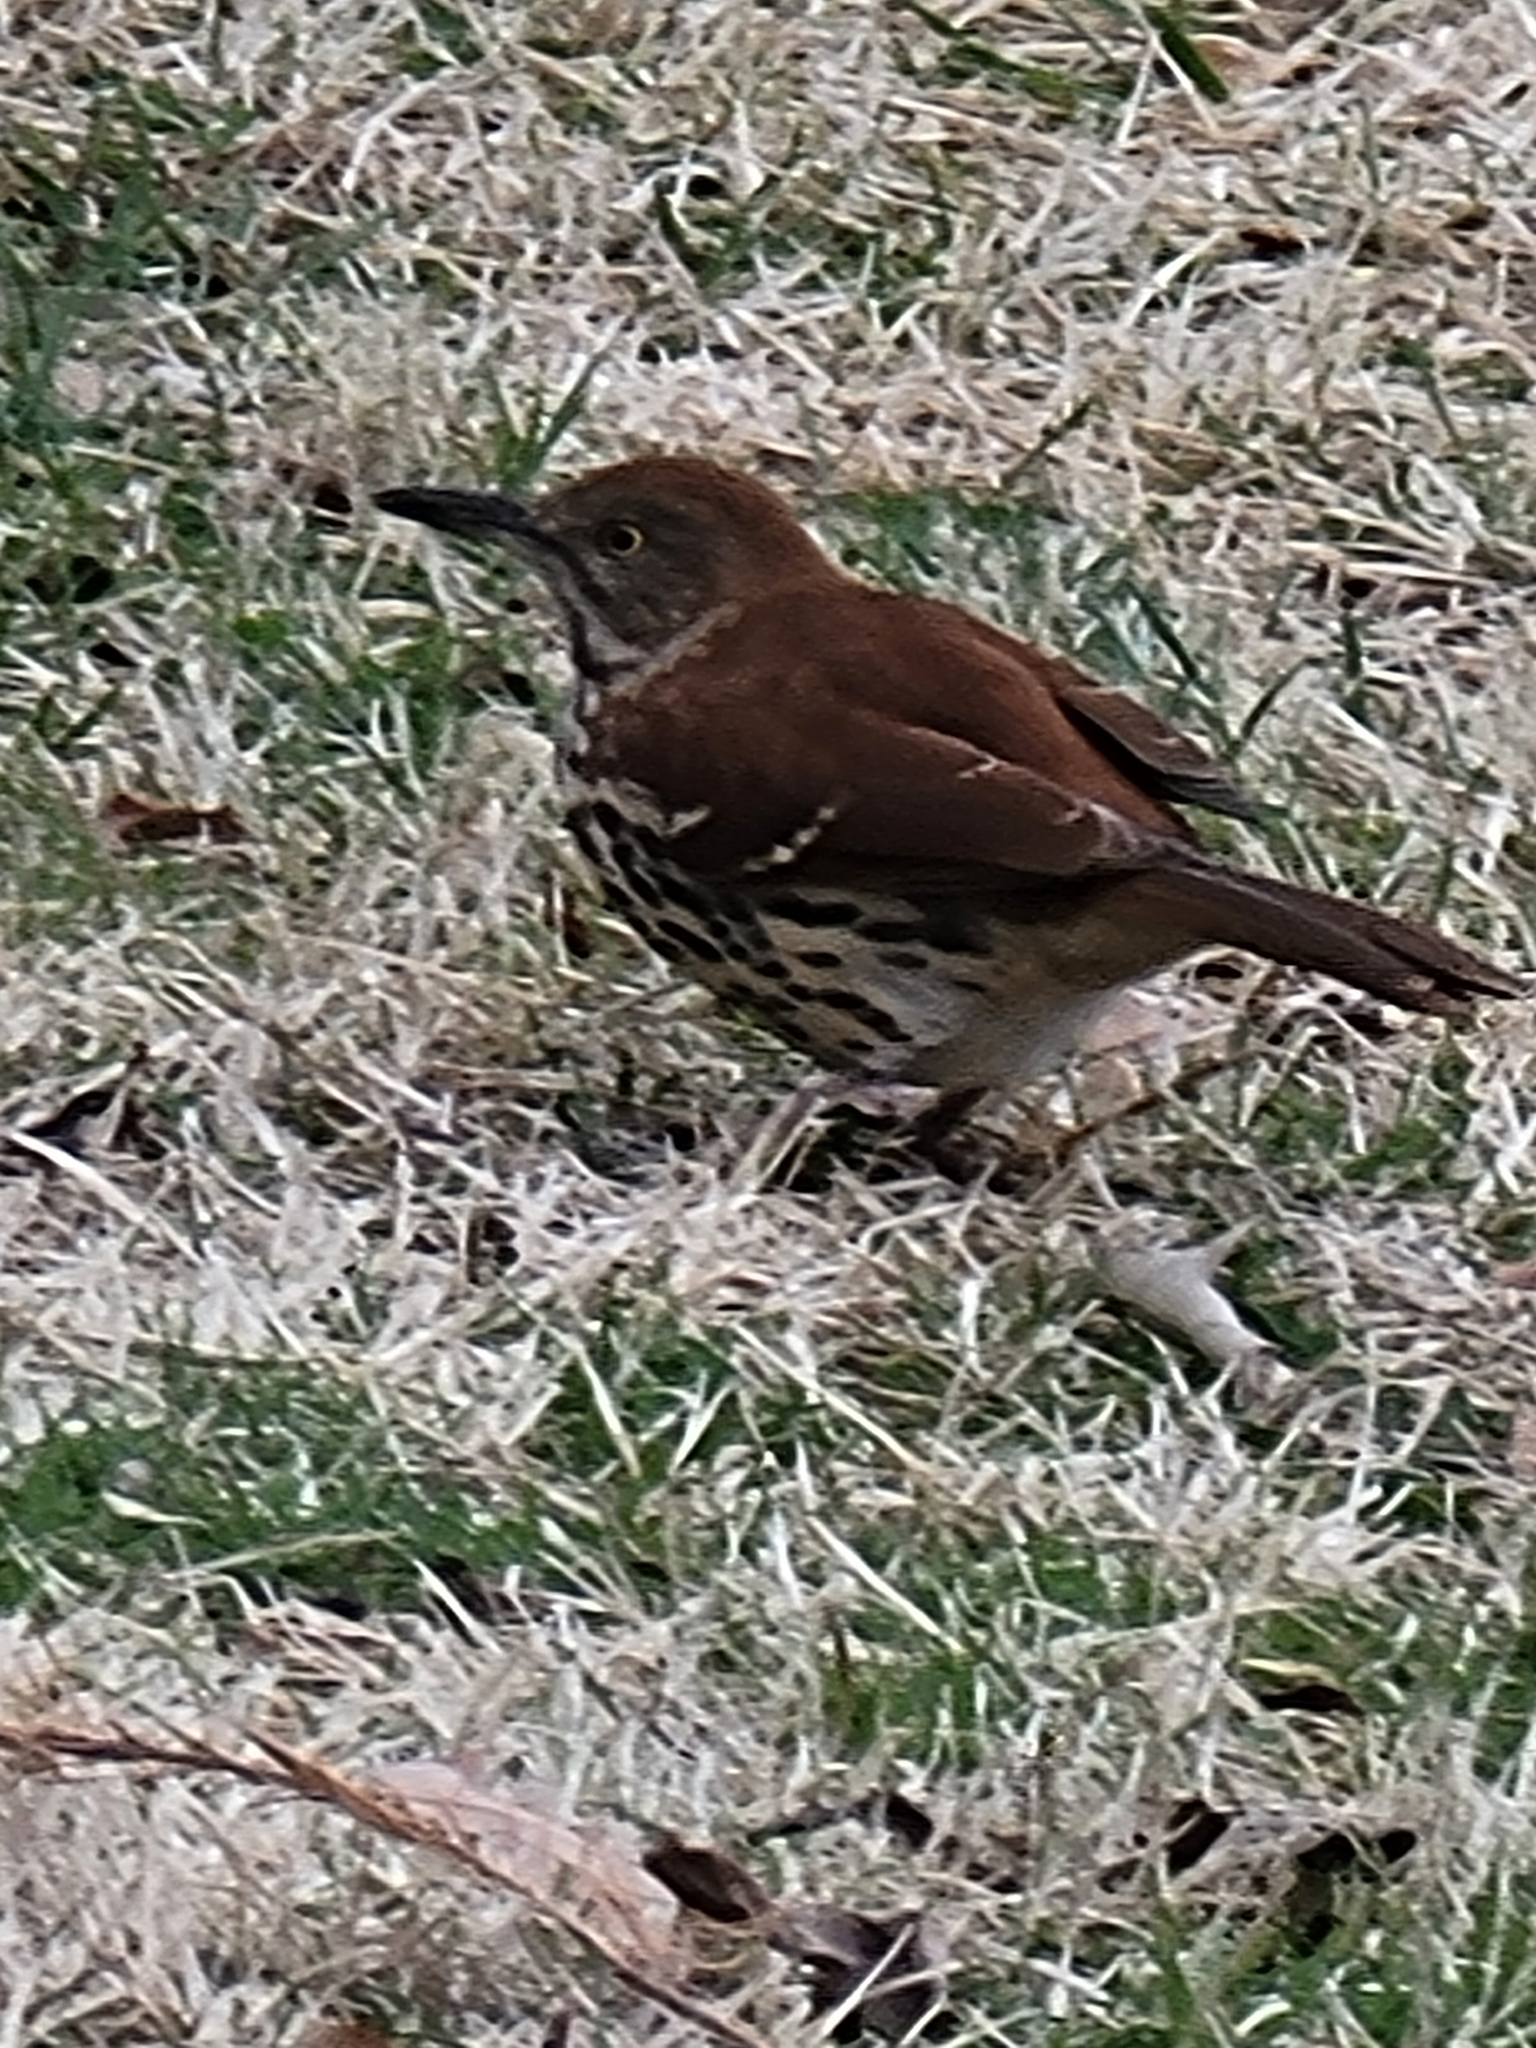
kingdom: Animalia
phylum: Chordata
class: Aves
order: Passeriformes
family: Mimidae
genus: Toxostoma
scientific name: Toxostoma rufum
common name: Brown thrasher
